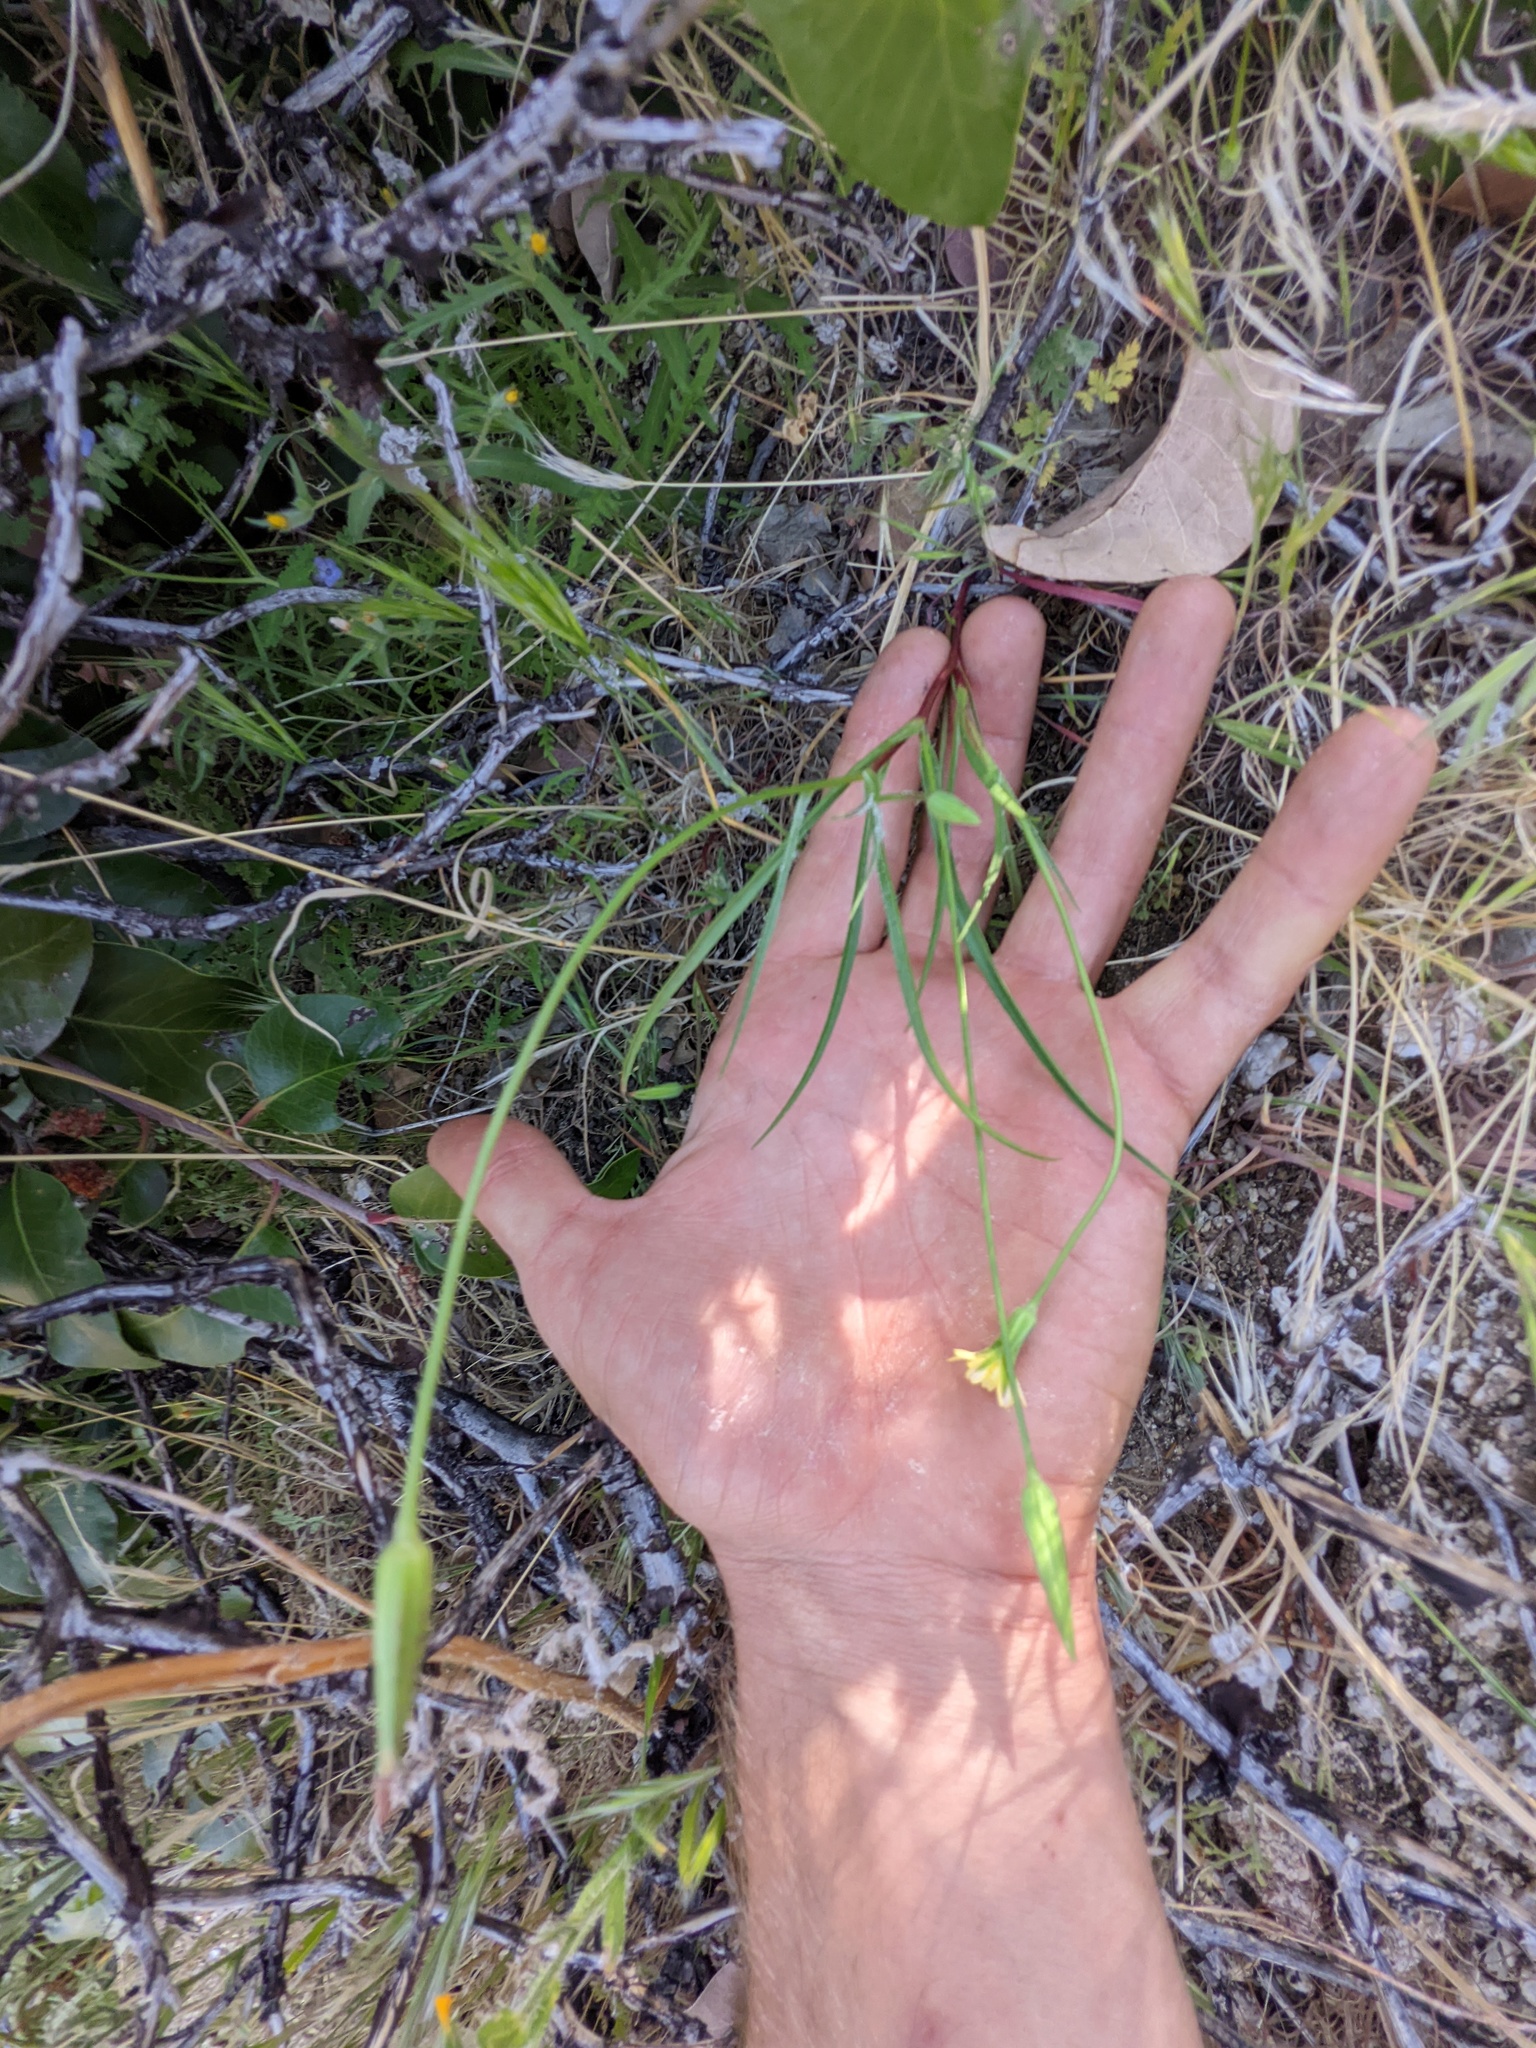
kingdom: Plantae
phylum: Tracheophyta
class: Magnoliopsida
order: Asterales
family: Asteraceae
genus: Microseris
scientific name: Microseris lindleyi
